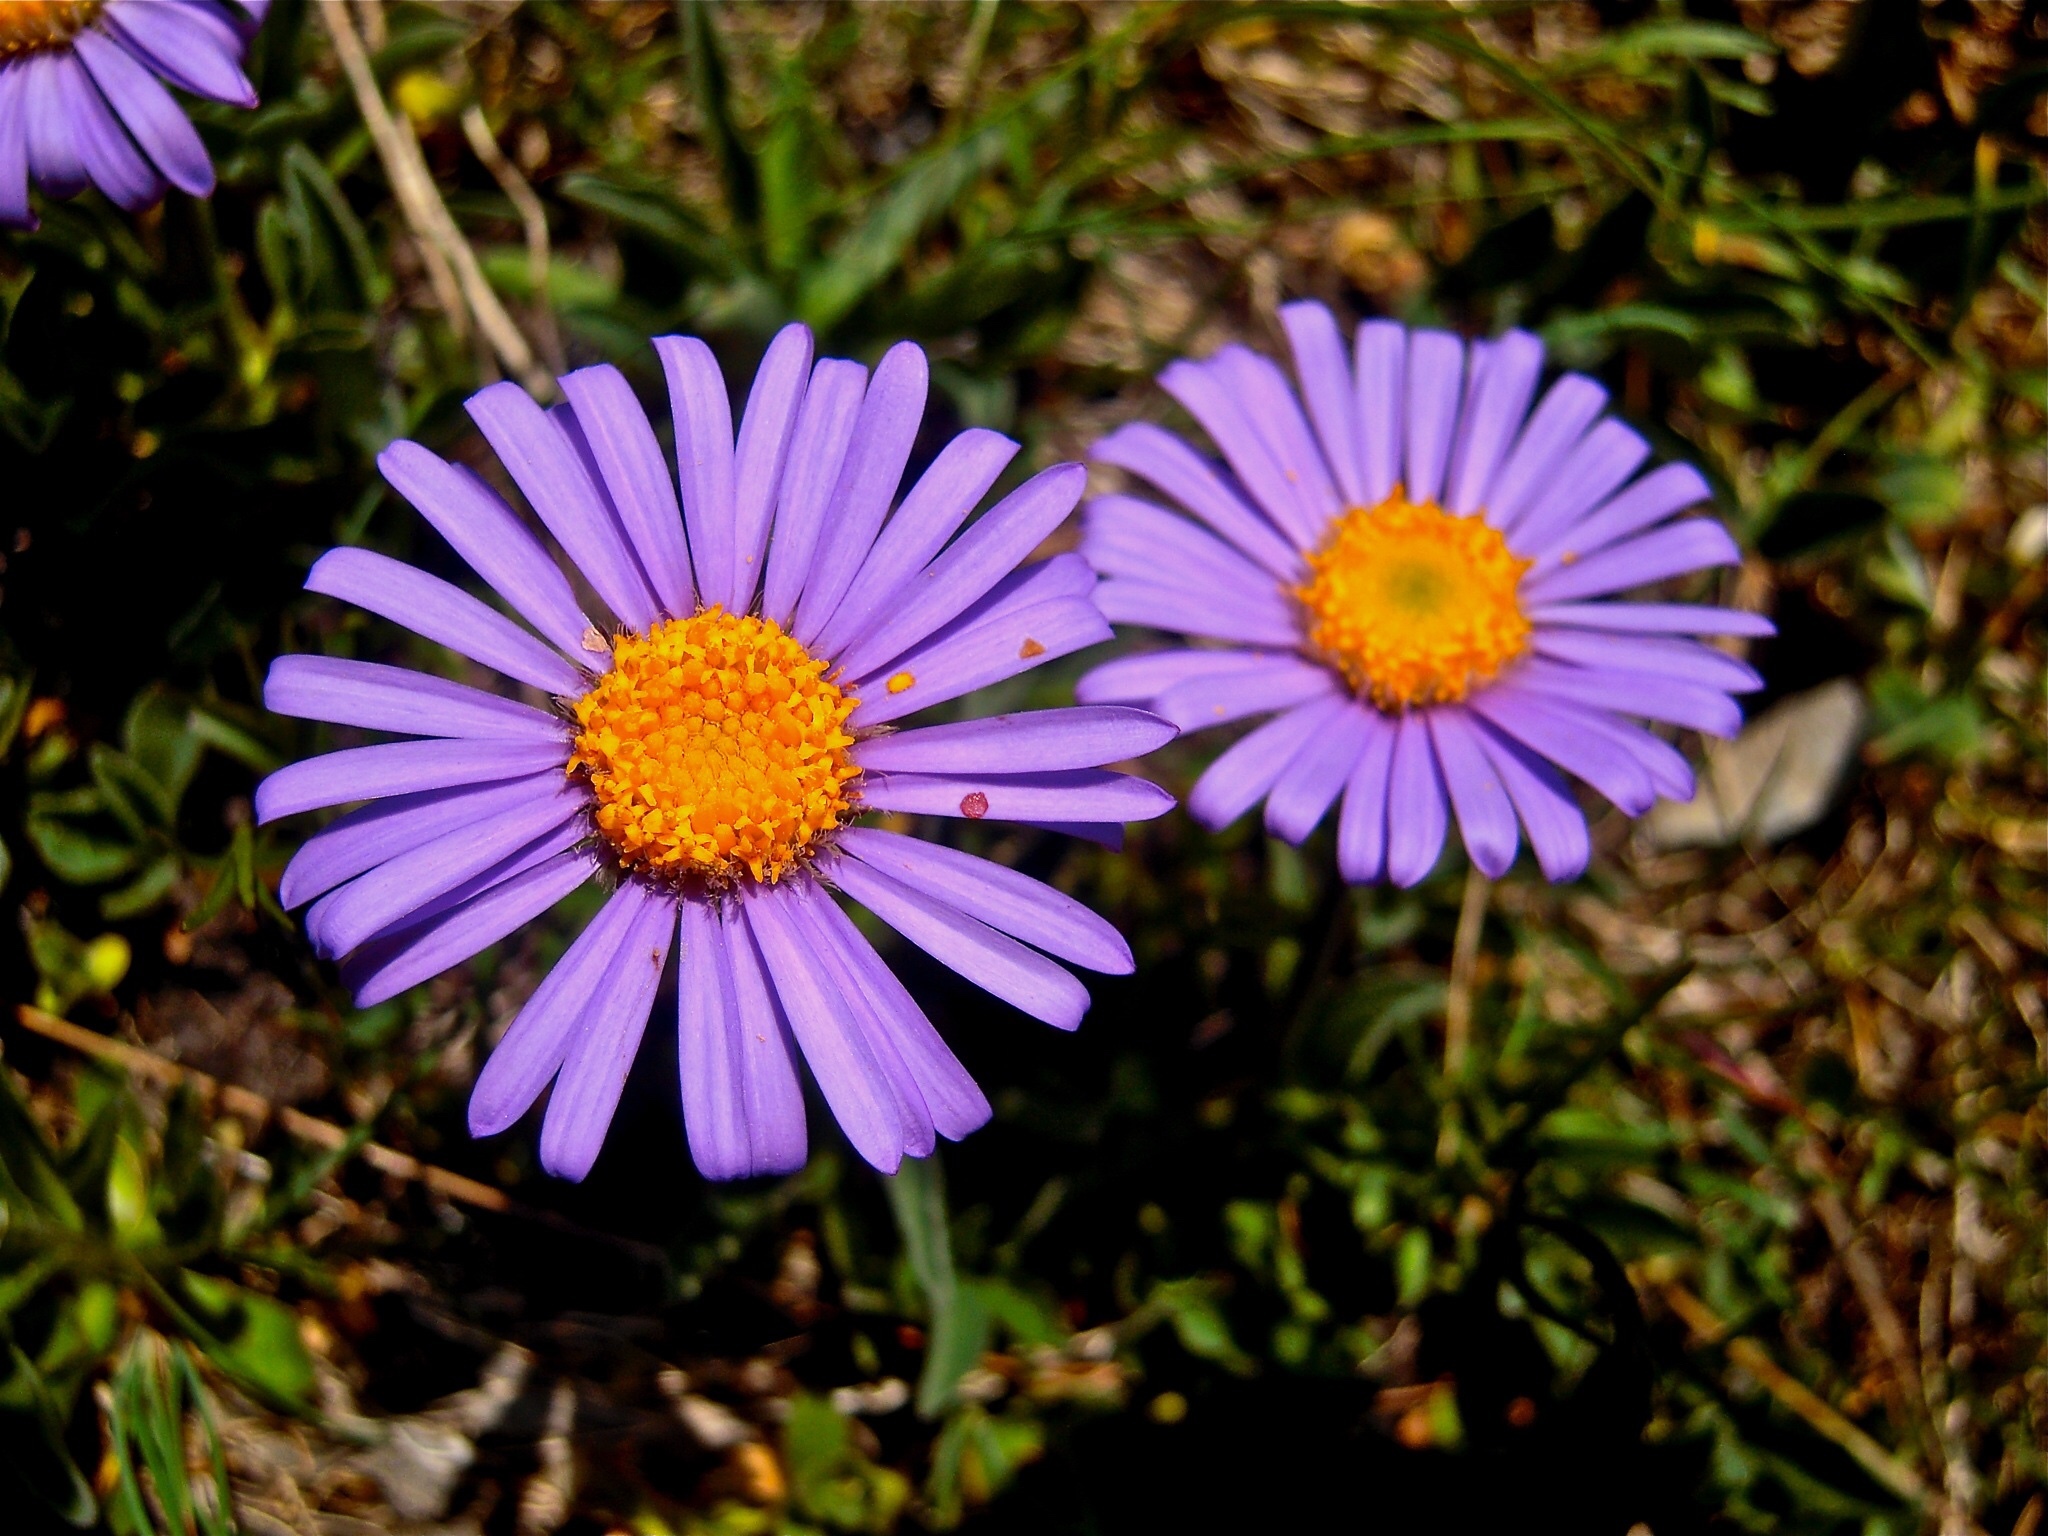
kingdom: Plantae
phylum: Tracheophyta
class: Magnoliopsida
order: Asterales
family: Asteraceae
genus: Aster
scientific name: Aster alpinus
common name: Alpine aster
